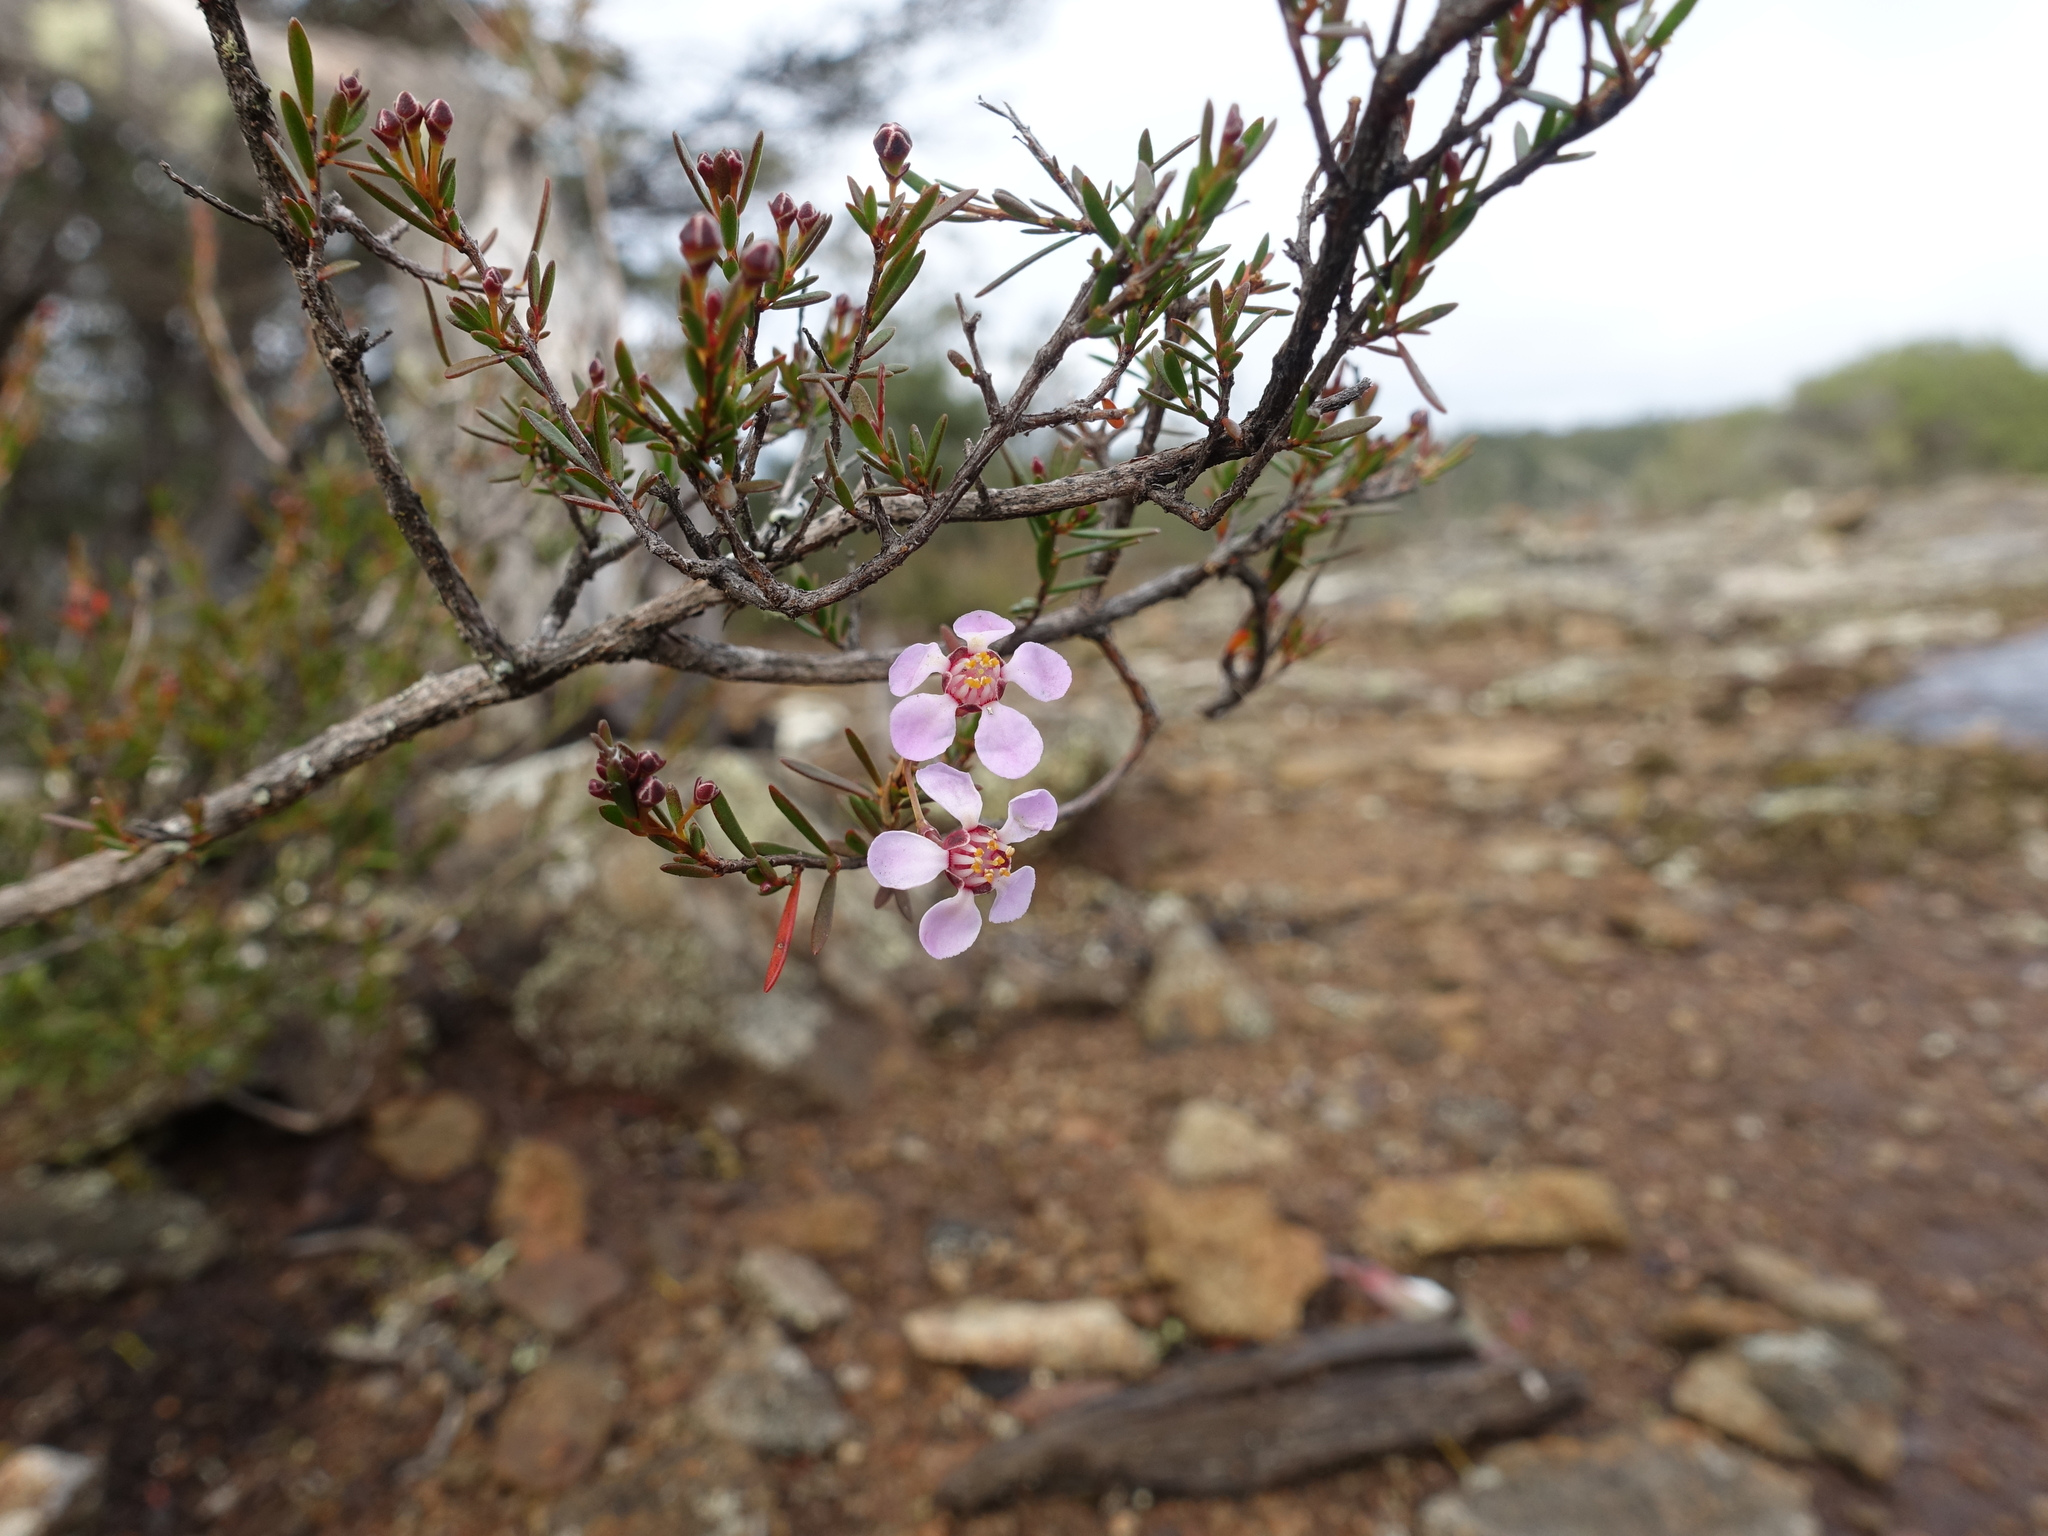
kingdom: Plantae
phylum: Tracheophyta
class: Magnoliopsida
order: Myrtales
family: Myrtaceae
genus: Euryomyrtus
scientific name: Euryomyrtus ramosissima
